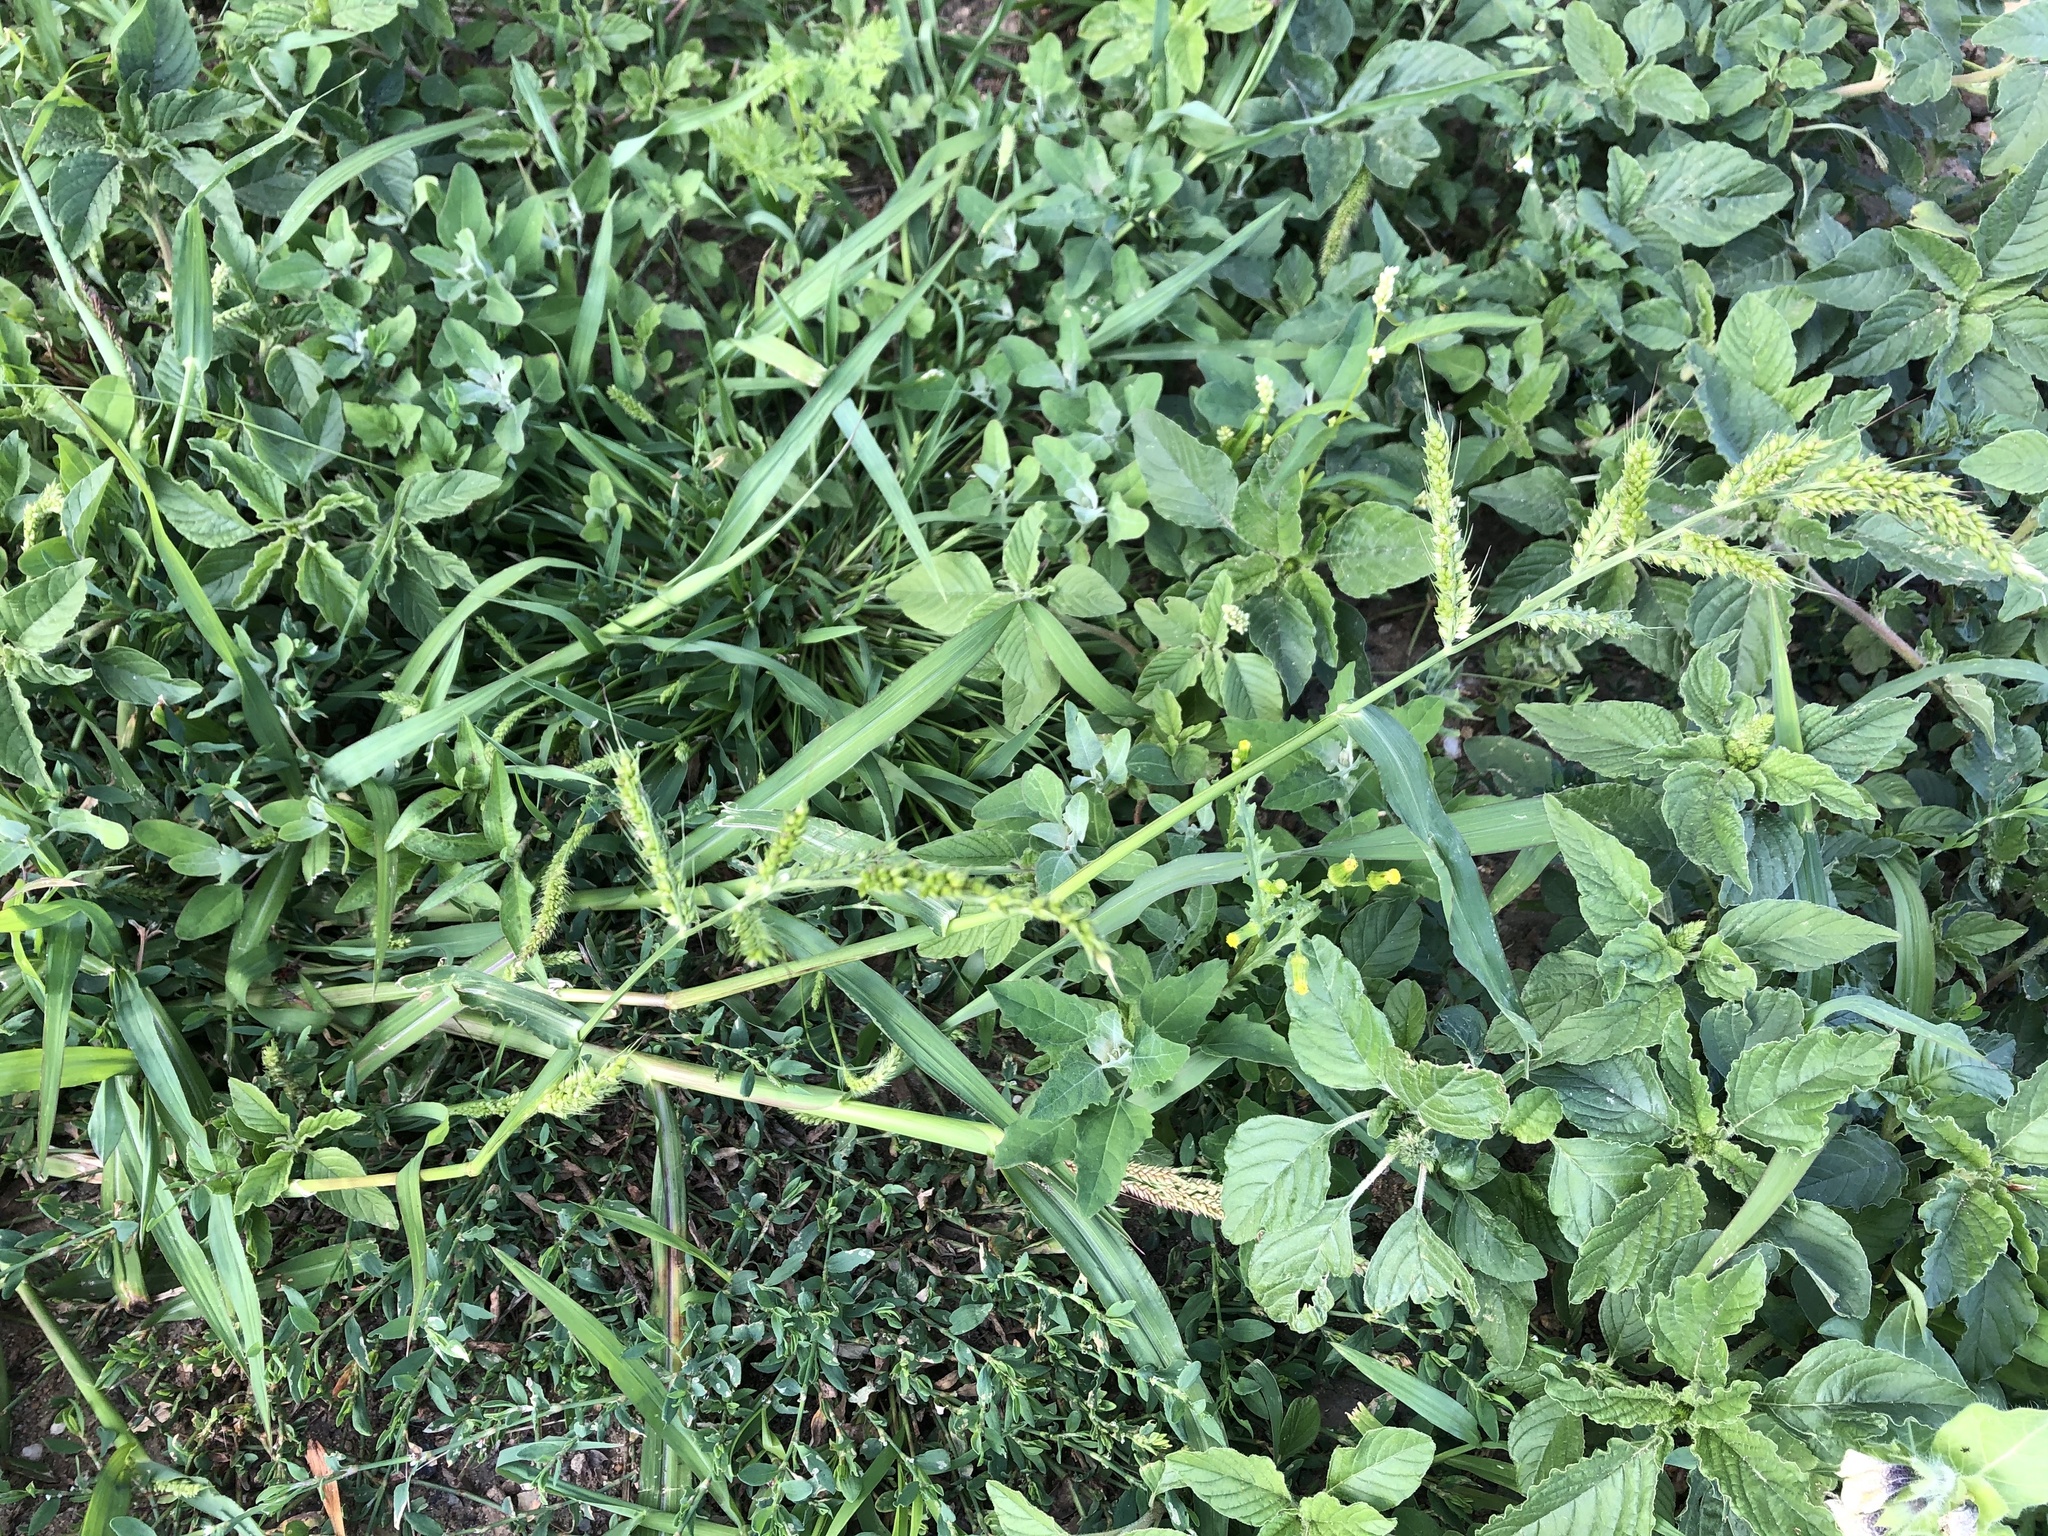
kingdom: Plantae
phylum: Tracheophyta
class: Liliopsida
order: Poales
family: Poaceae
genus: Echinochloa
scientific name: Echinochloa crus-galli
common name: Cockspur
